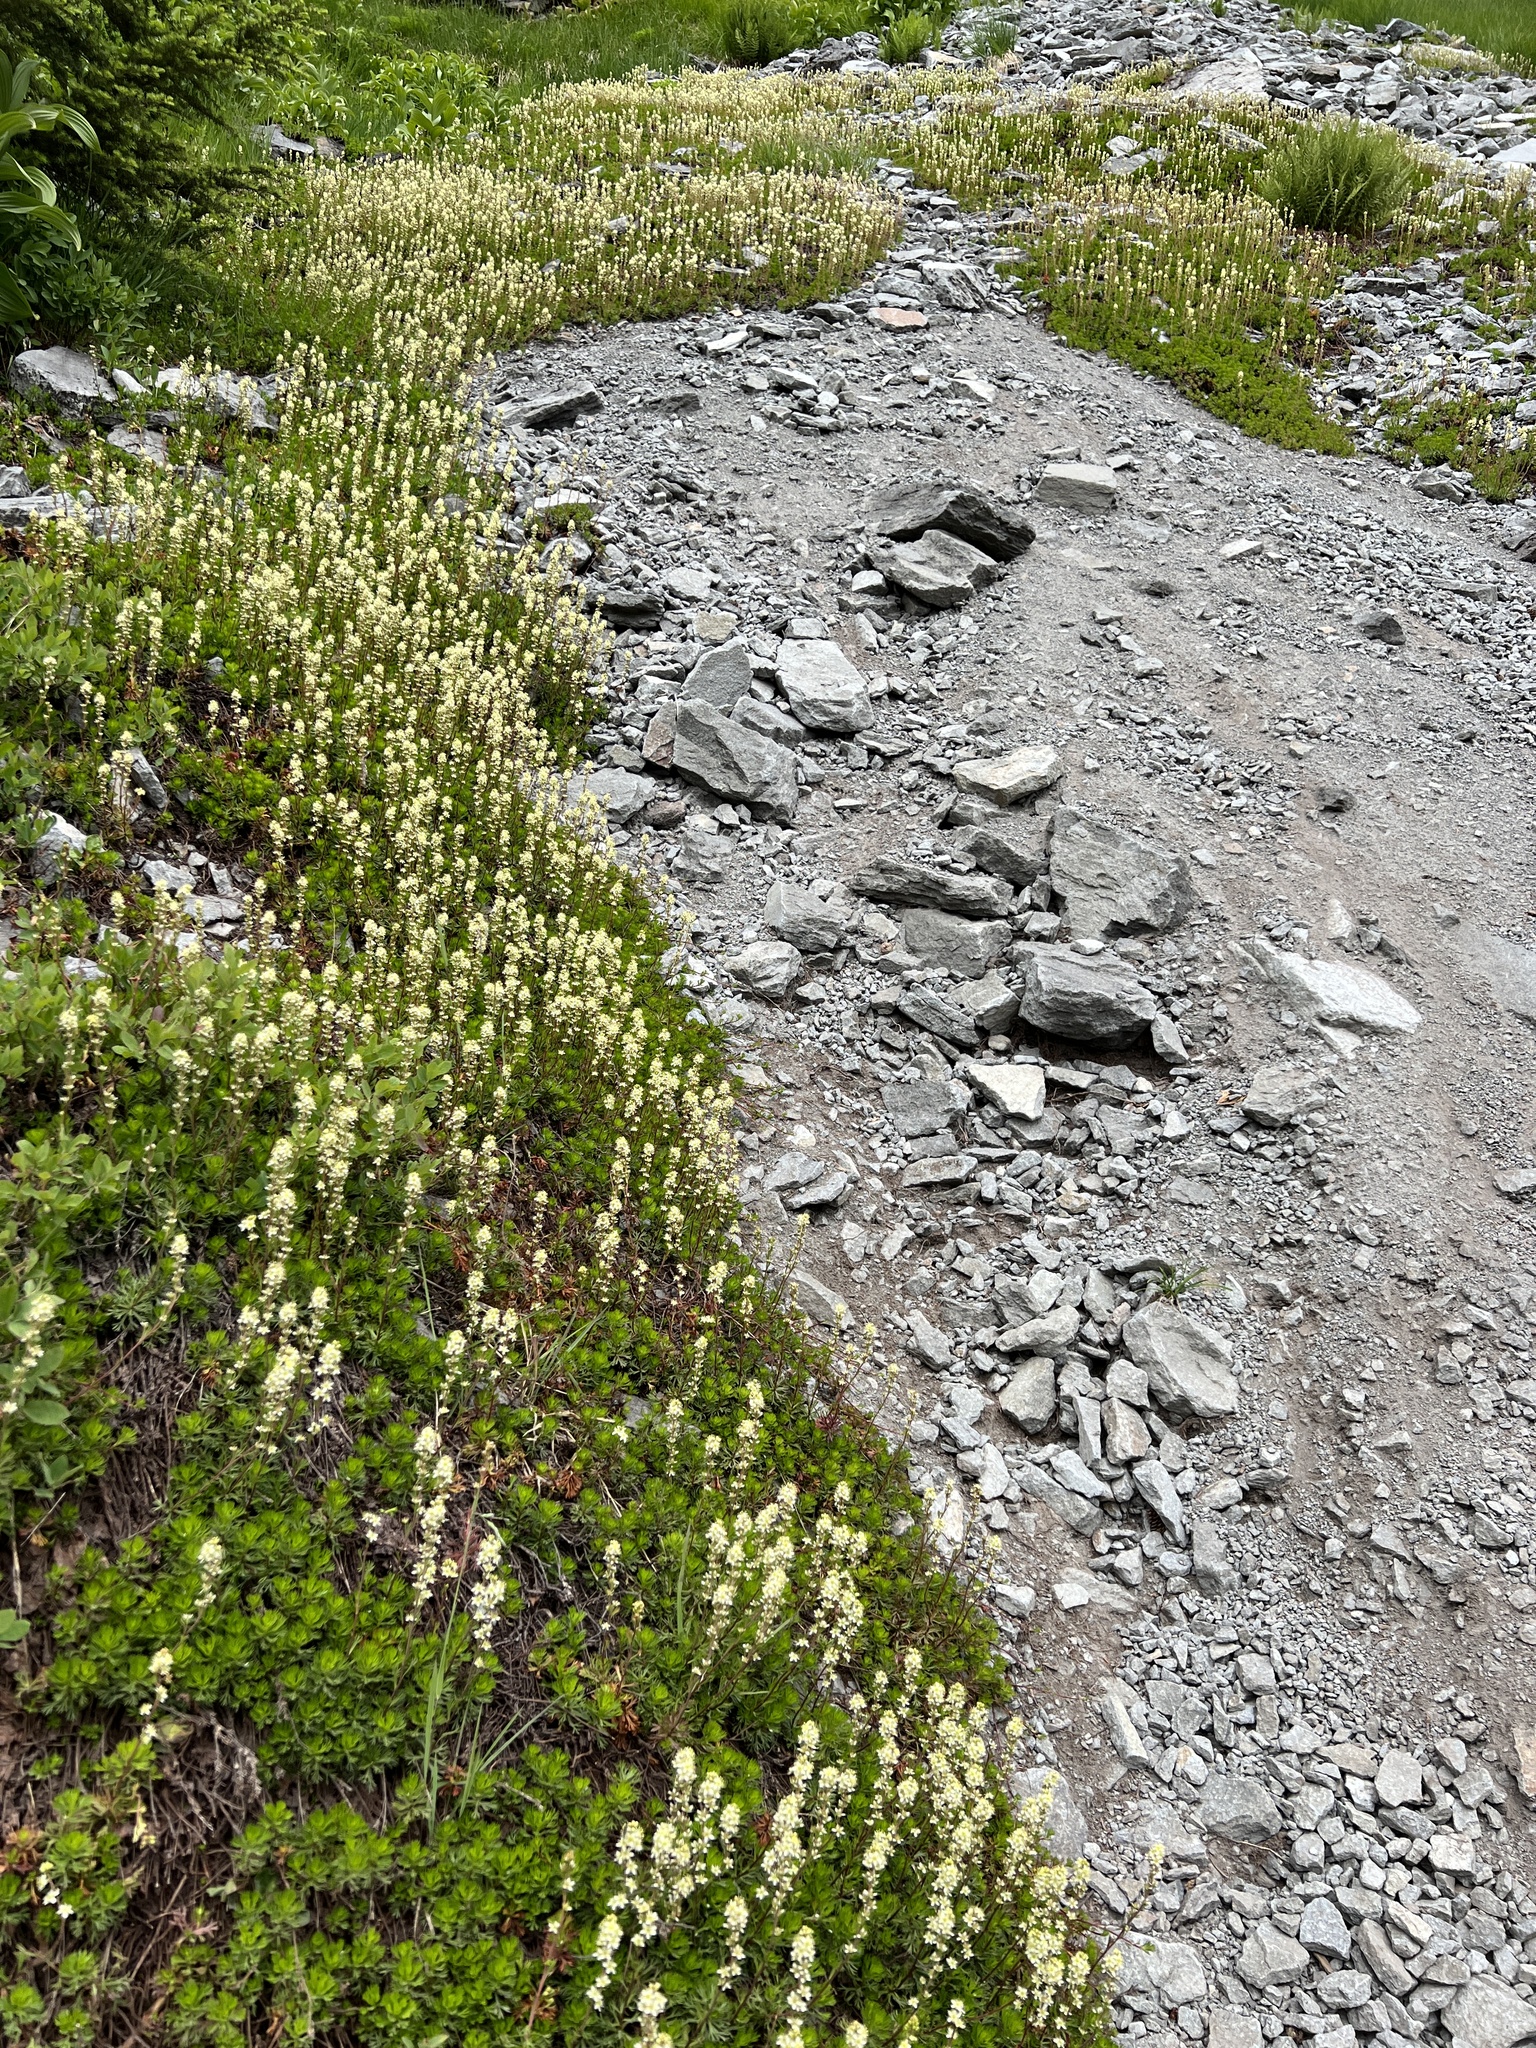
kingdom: Plantae
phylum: Tracheophyta
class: Magnoliopsida
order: Rosales
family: Rosaceae
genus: Luetkea
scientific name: Luetkea pectinata
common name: Partridgefoot
